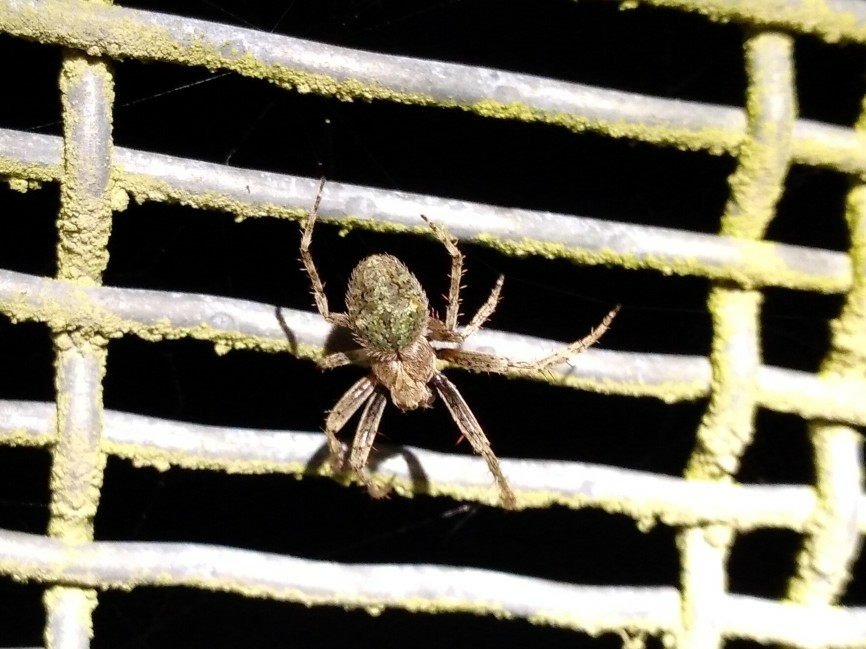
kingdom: Animalia
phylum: Arthropoda
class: Arachnida
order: Araneae
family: Araneidae
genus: Eriophora
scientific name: Eriophora pustulosa
